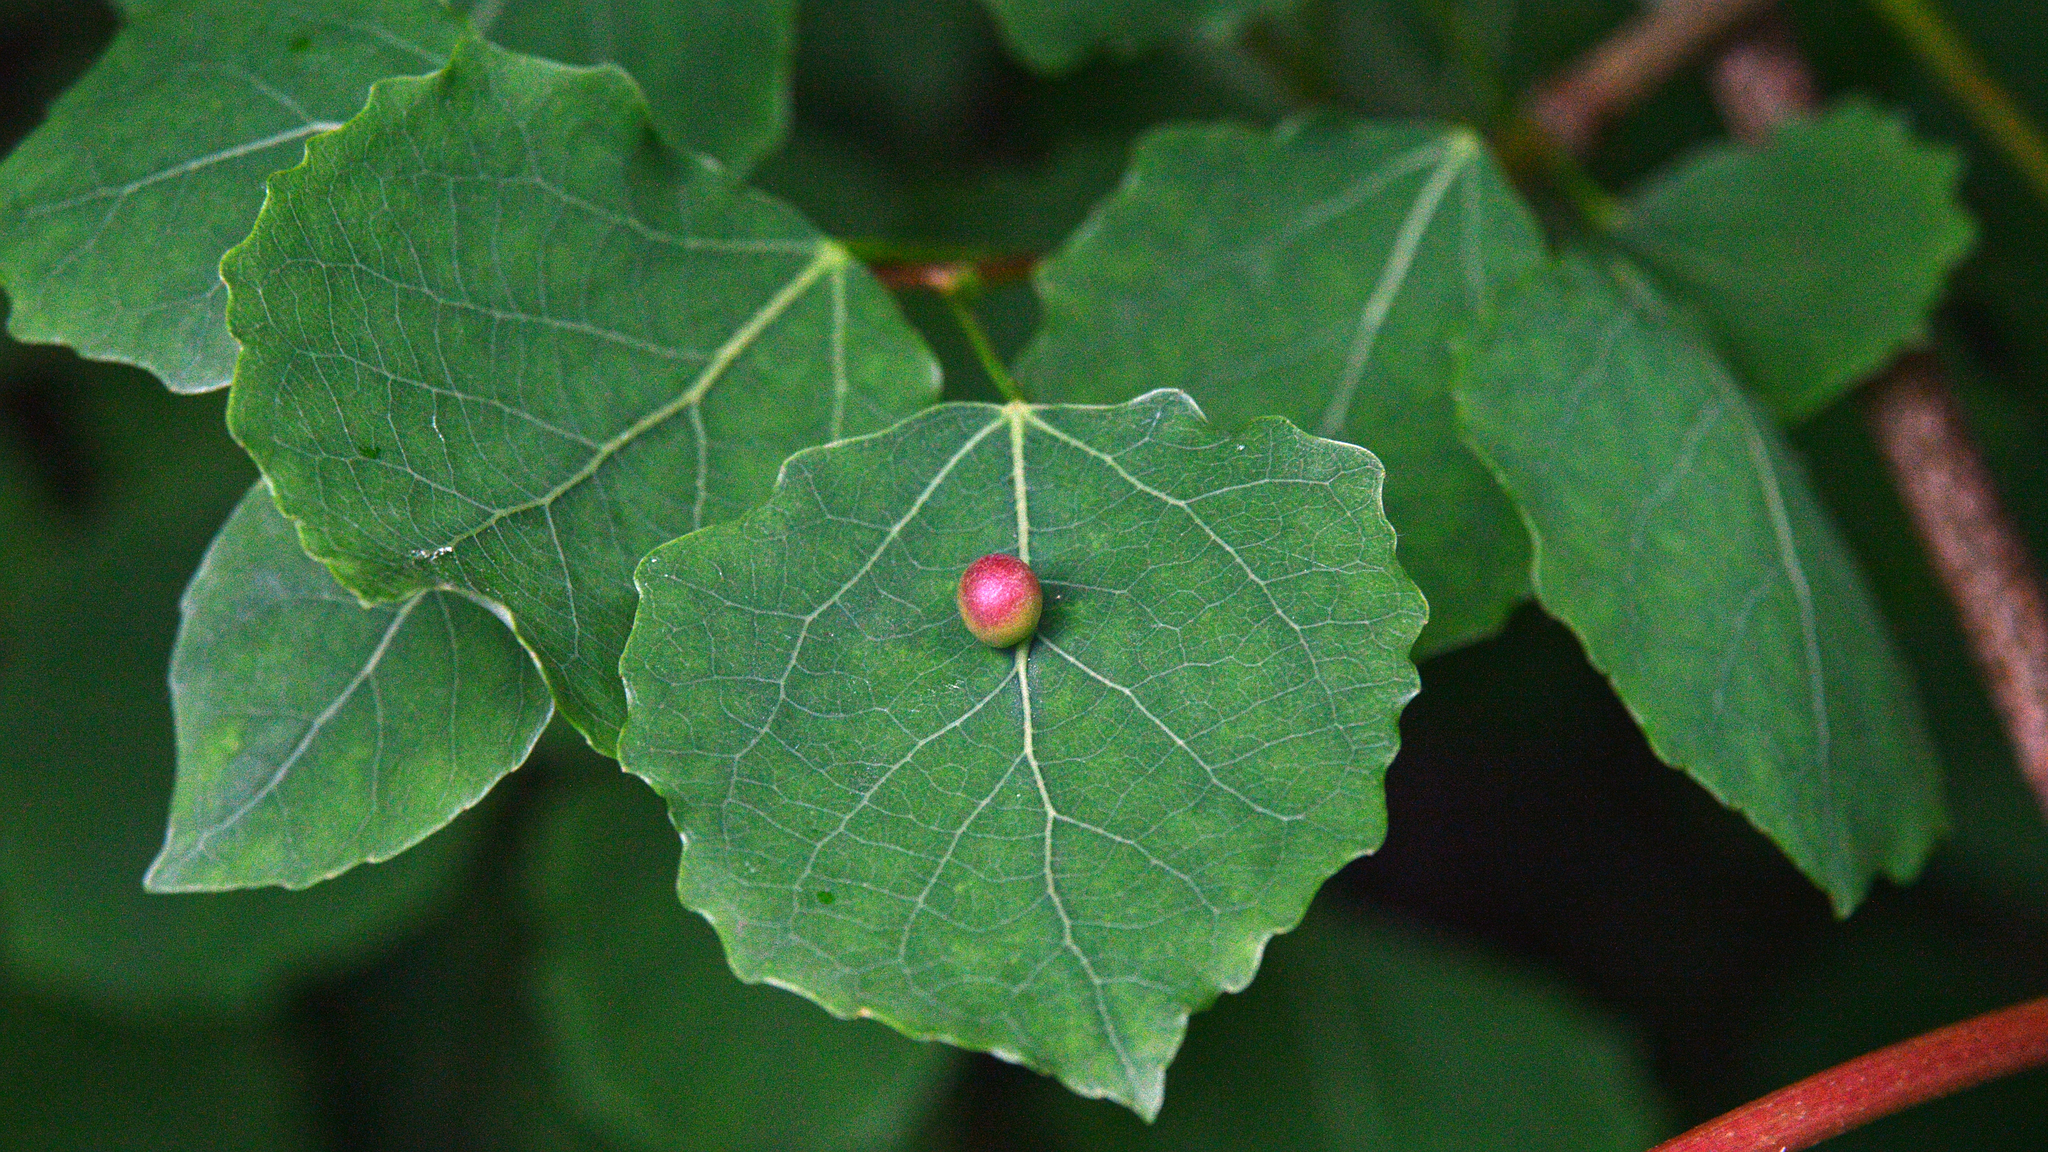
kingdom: Plantae
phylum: Tracheophyta
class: Magnoliopsida
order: Malpighiales
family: Salicaceae
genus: Populus
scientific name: Populus tremula
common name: European aspen
